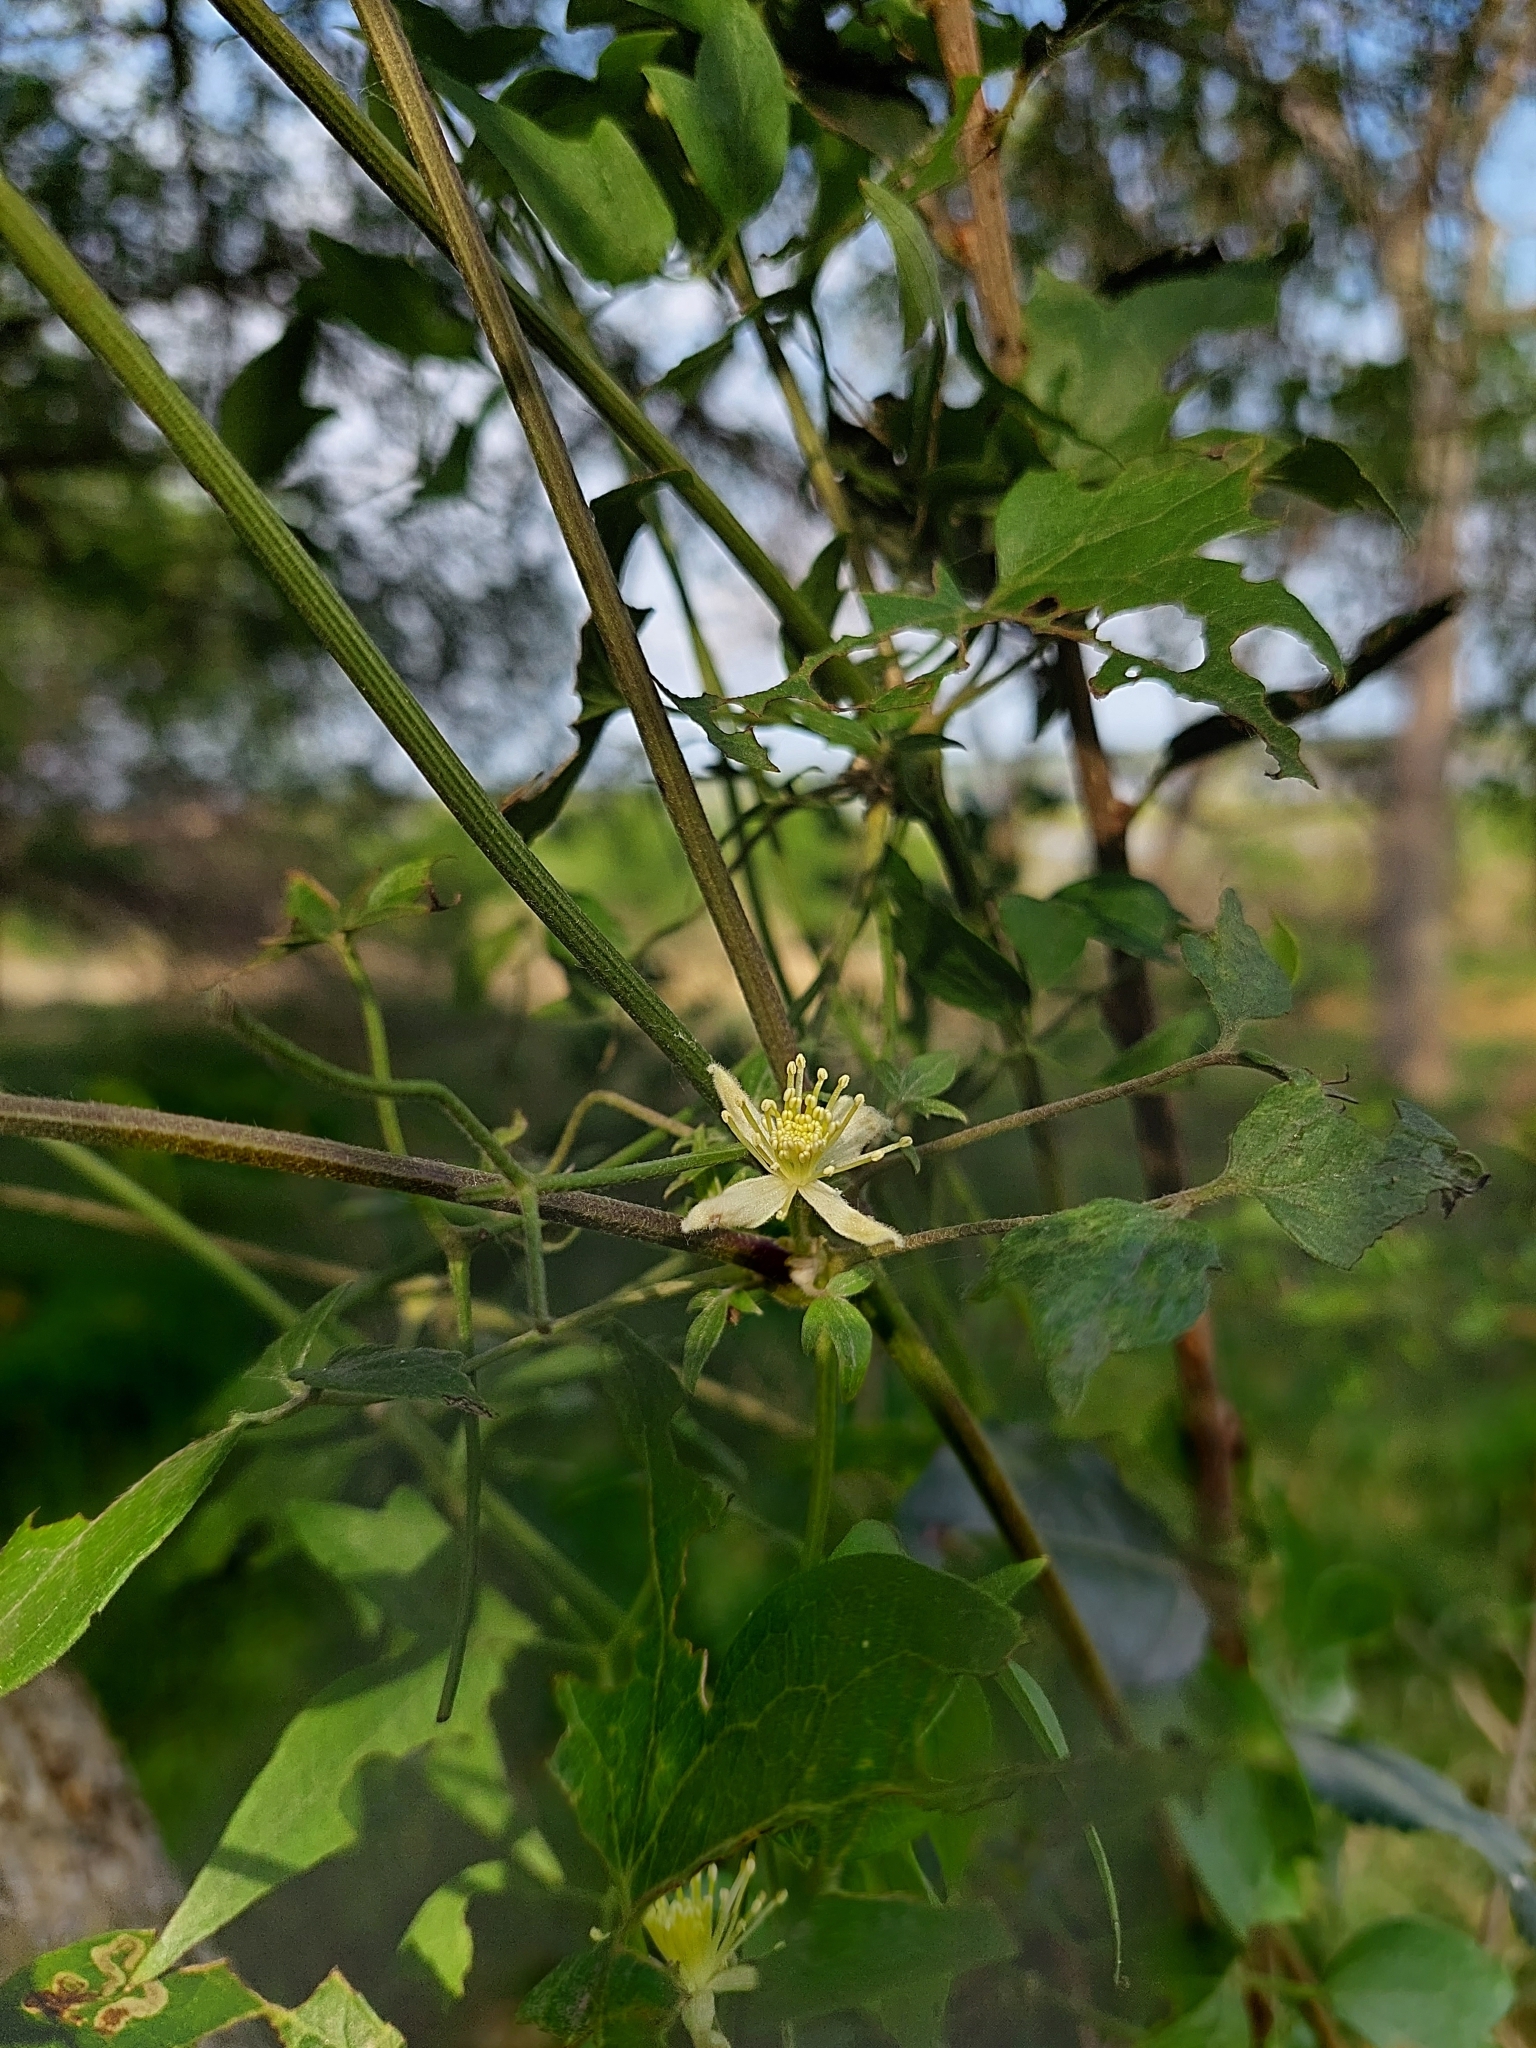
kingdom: Plantae
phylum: Tracheophyta
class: Magnoliopsida
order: Ranunculales
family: Ranunculaceae
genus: Clematis
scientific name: Clematis montevidensis
